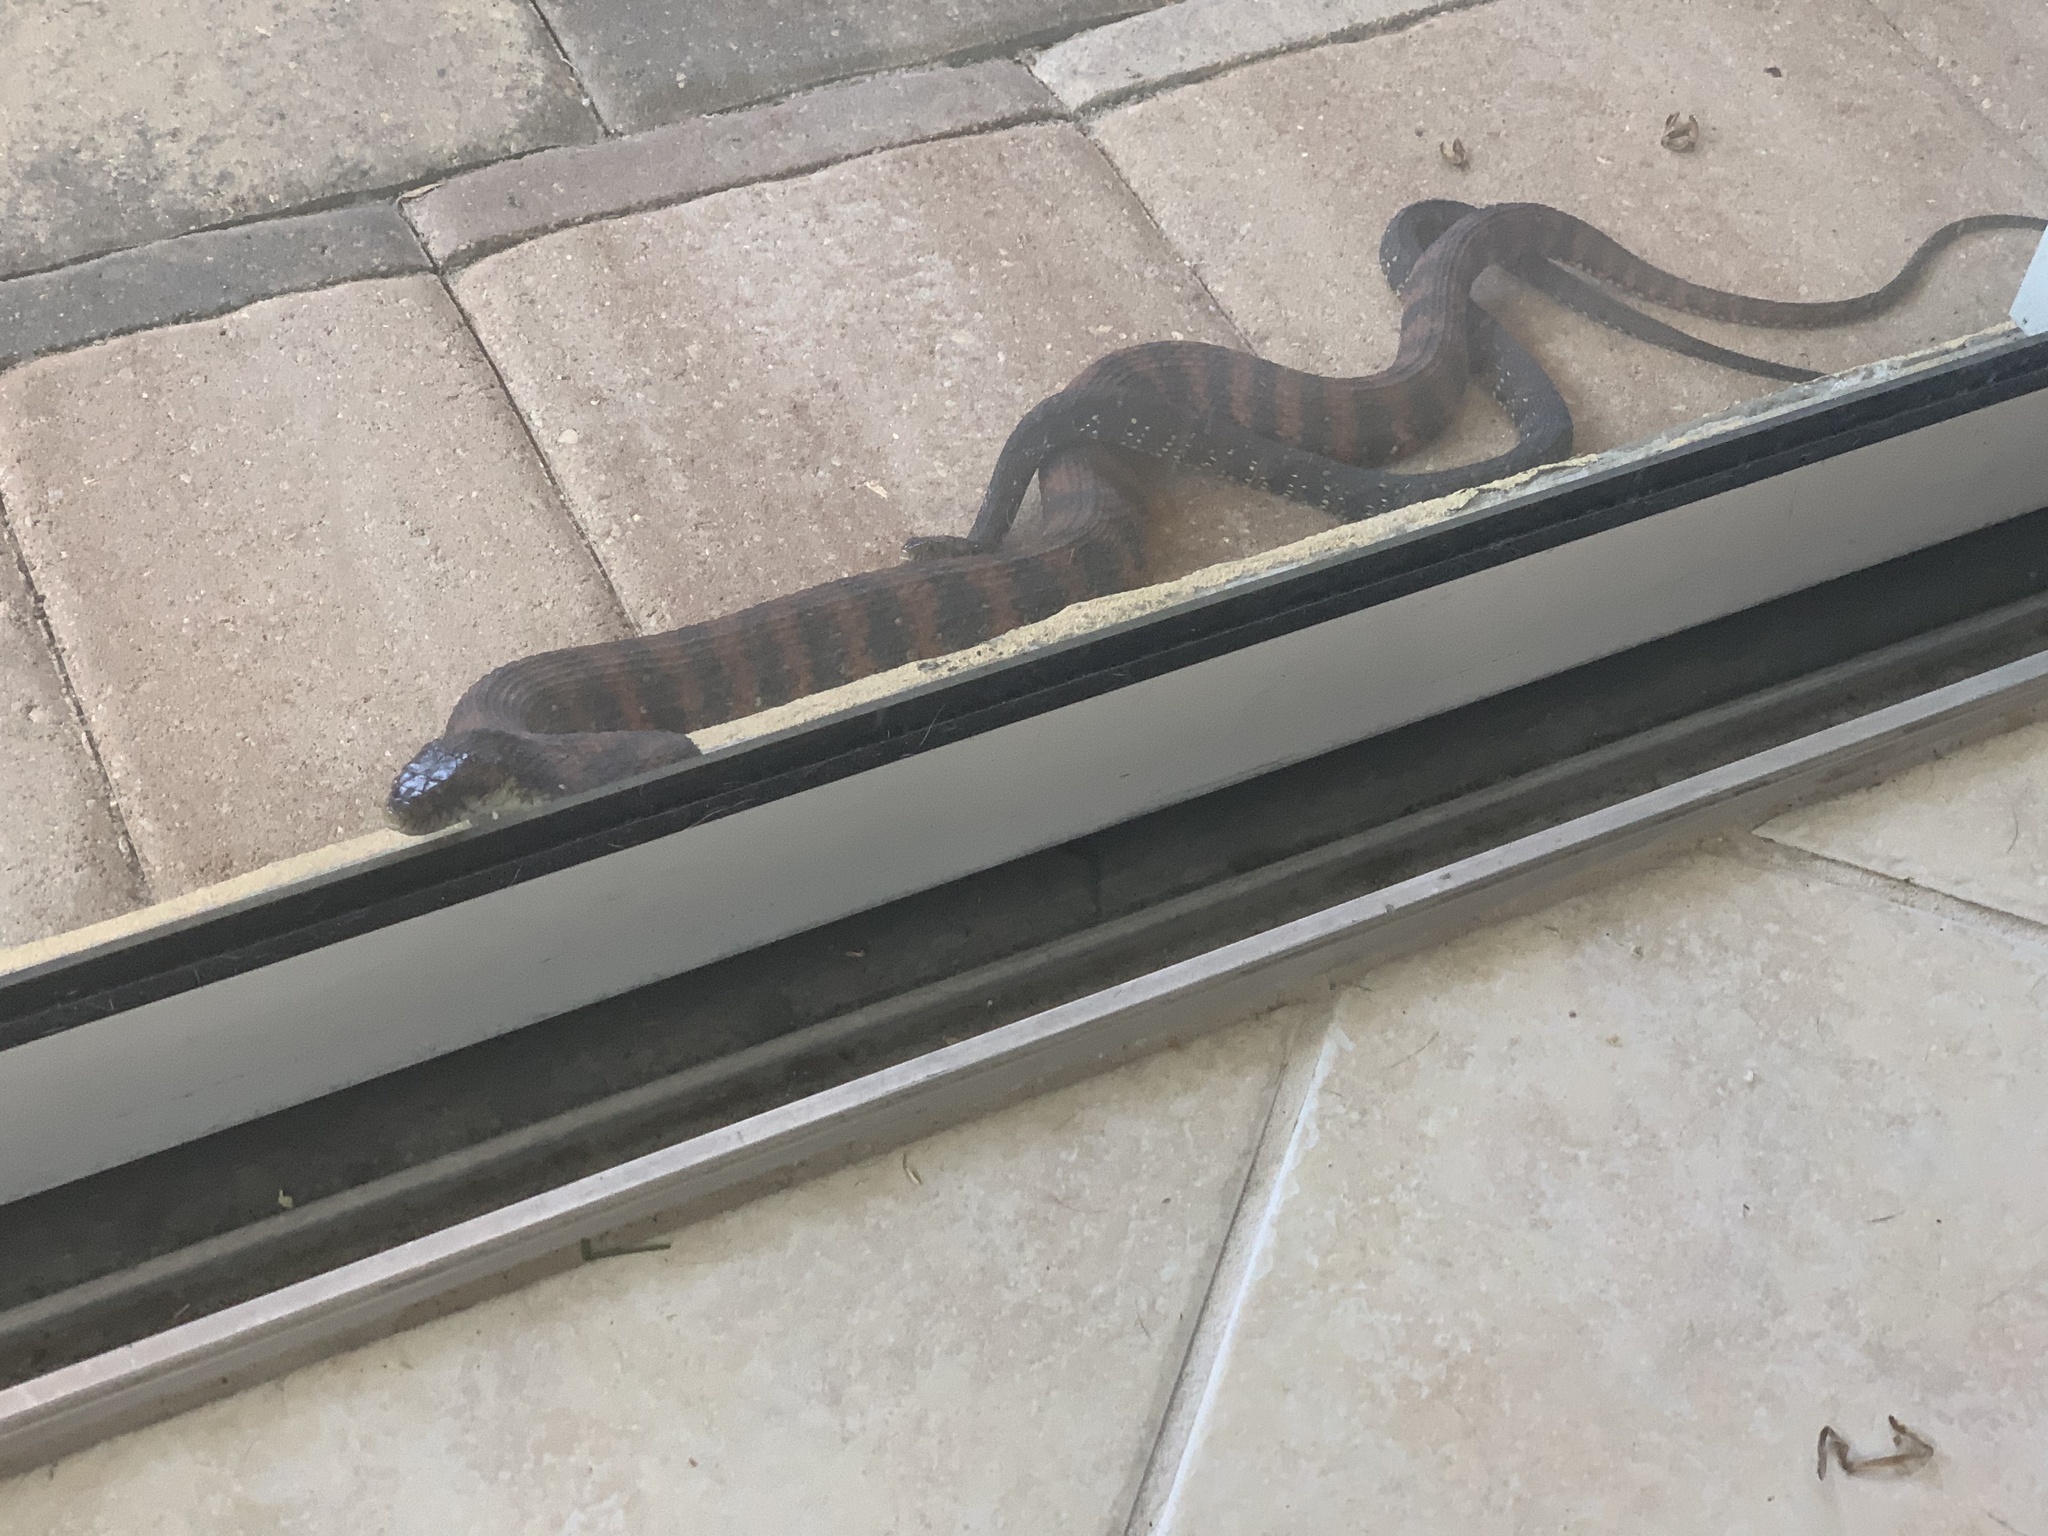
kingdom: Animalia
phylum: Chordata
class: Squamata
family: Colubridae
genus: Nerodia
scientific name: Nerodia fasciata
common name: Southern water snake
